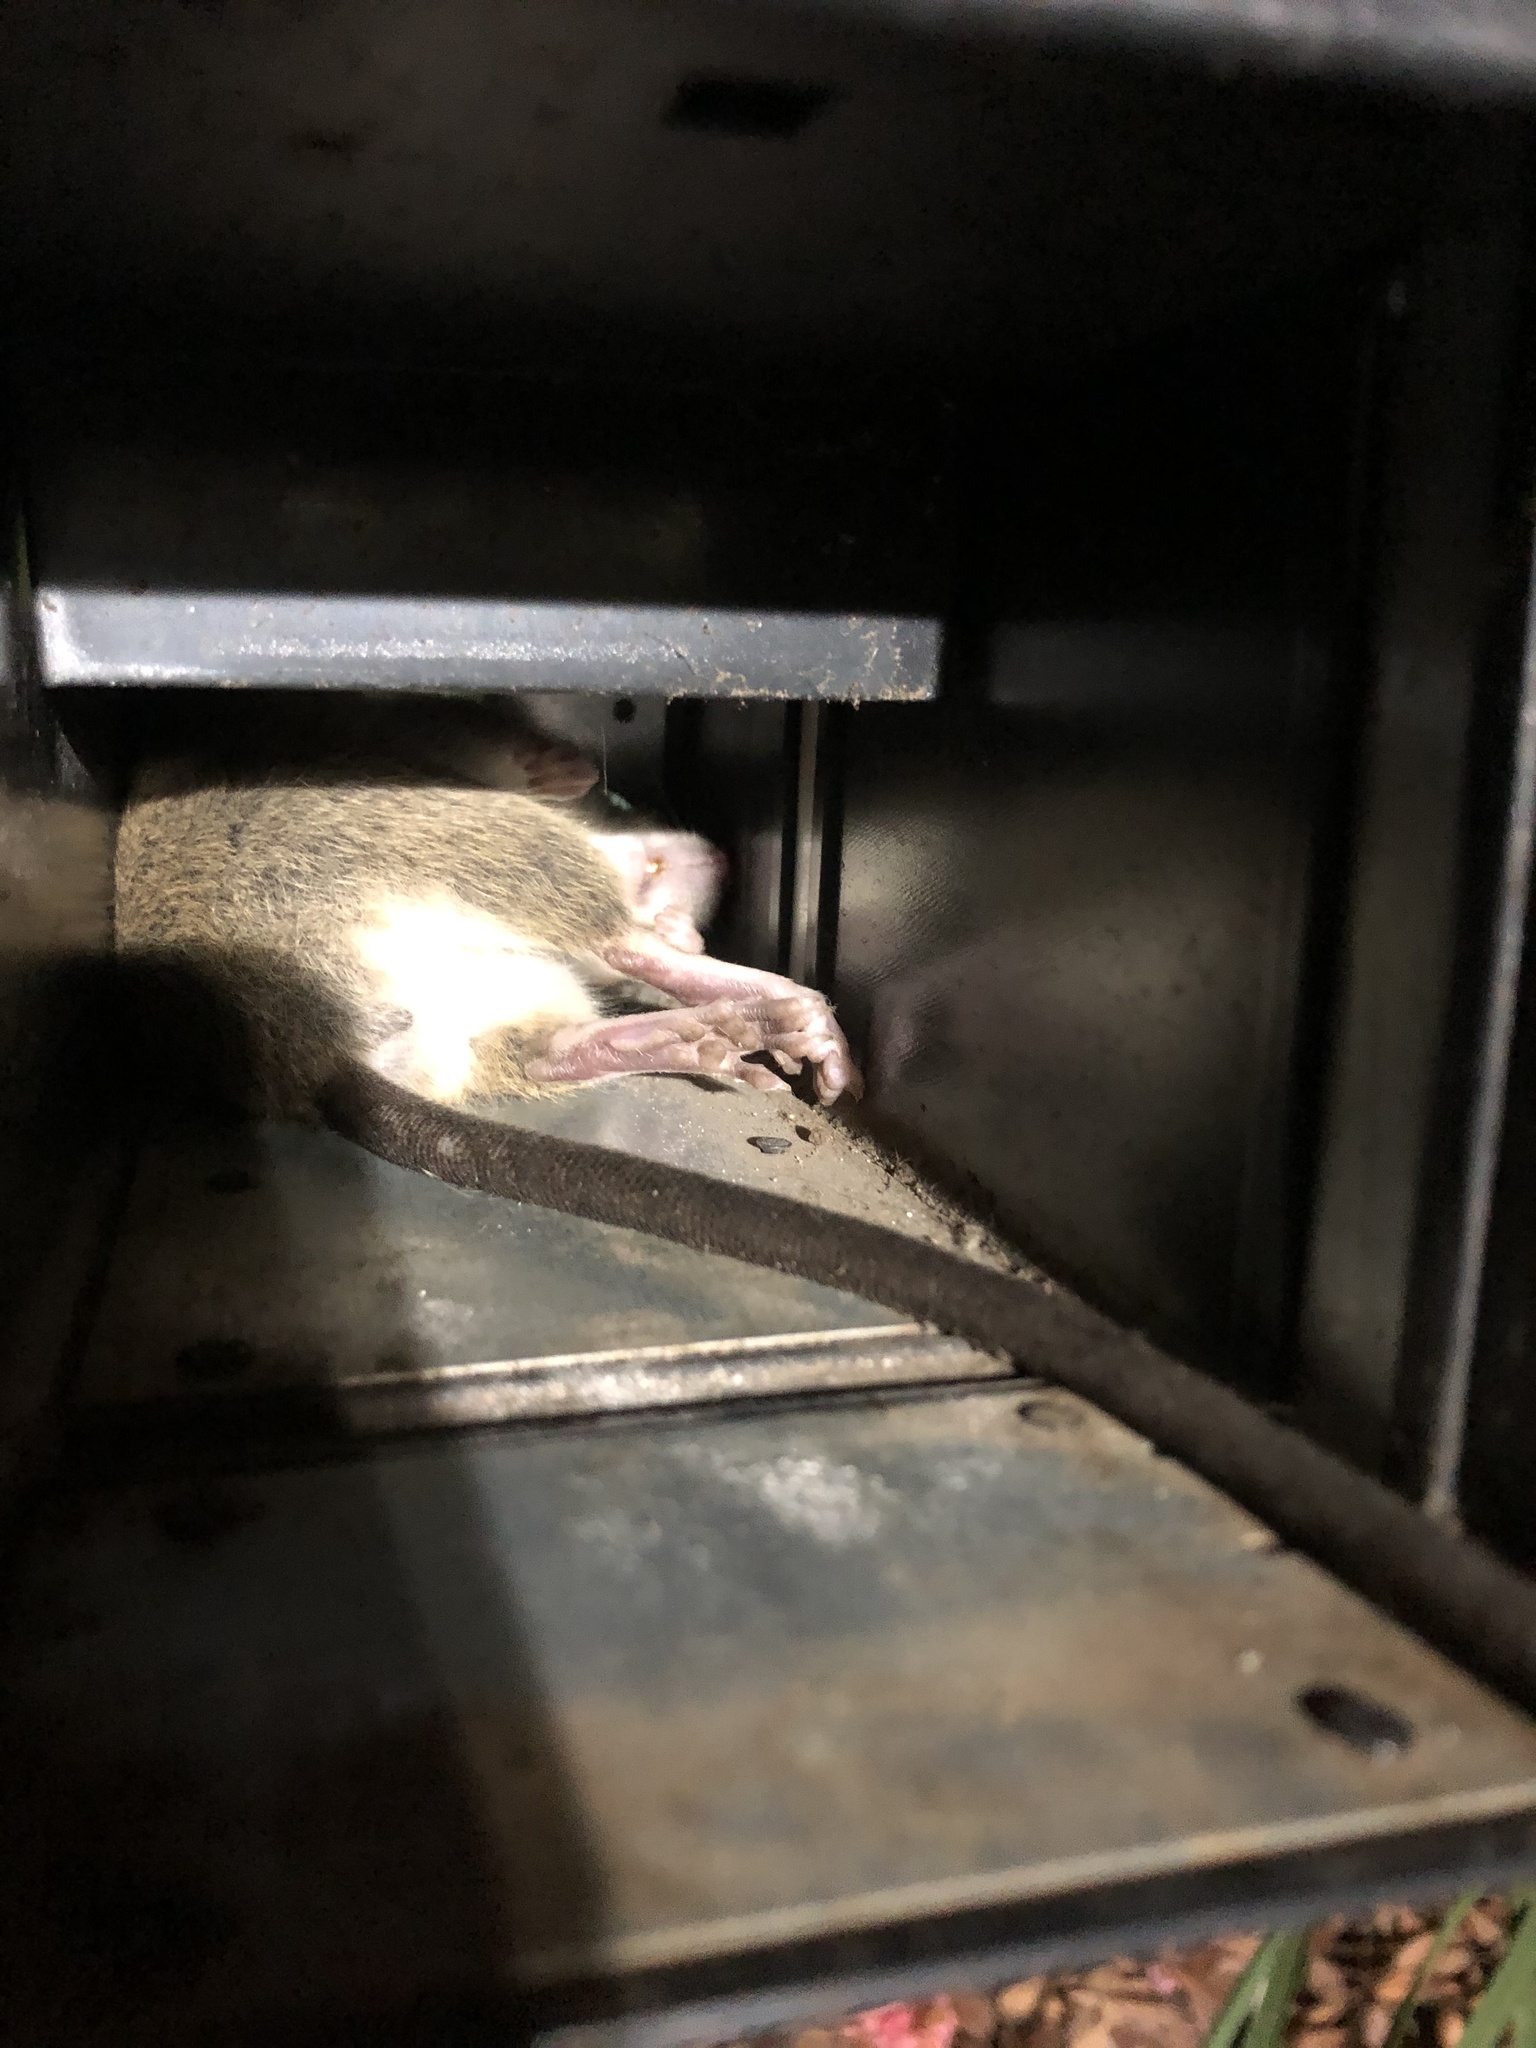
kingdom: Animalia
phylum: Chordata
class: Mammalia
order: Rodentia
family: Muridae
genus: Rattus
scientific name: Rattus rattus
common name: Black rat
